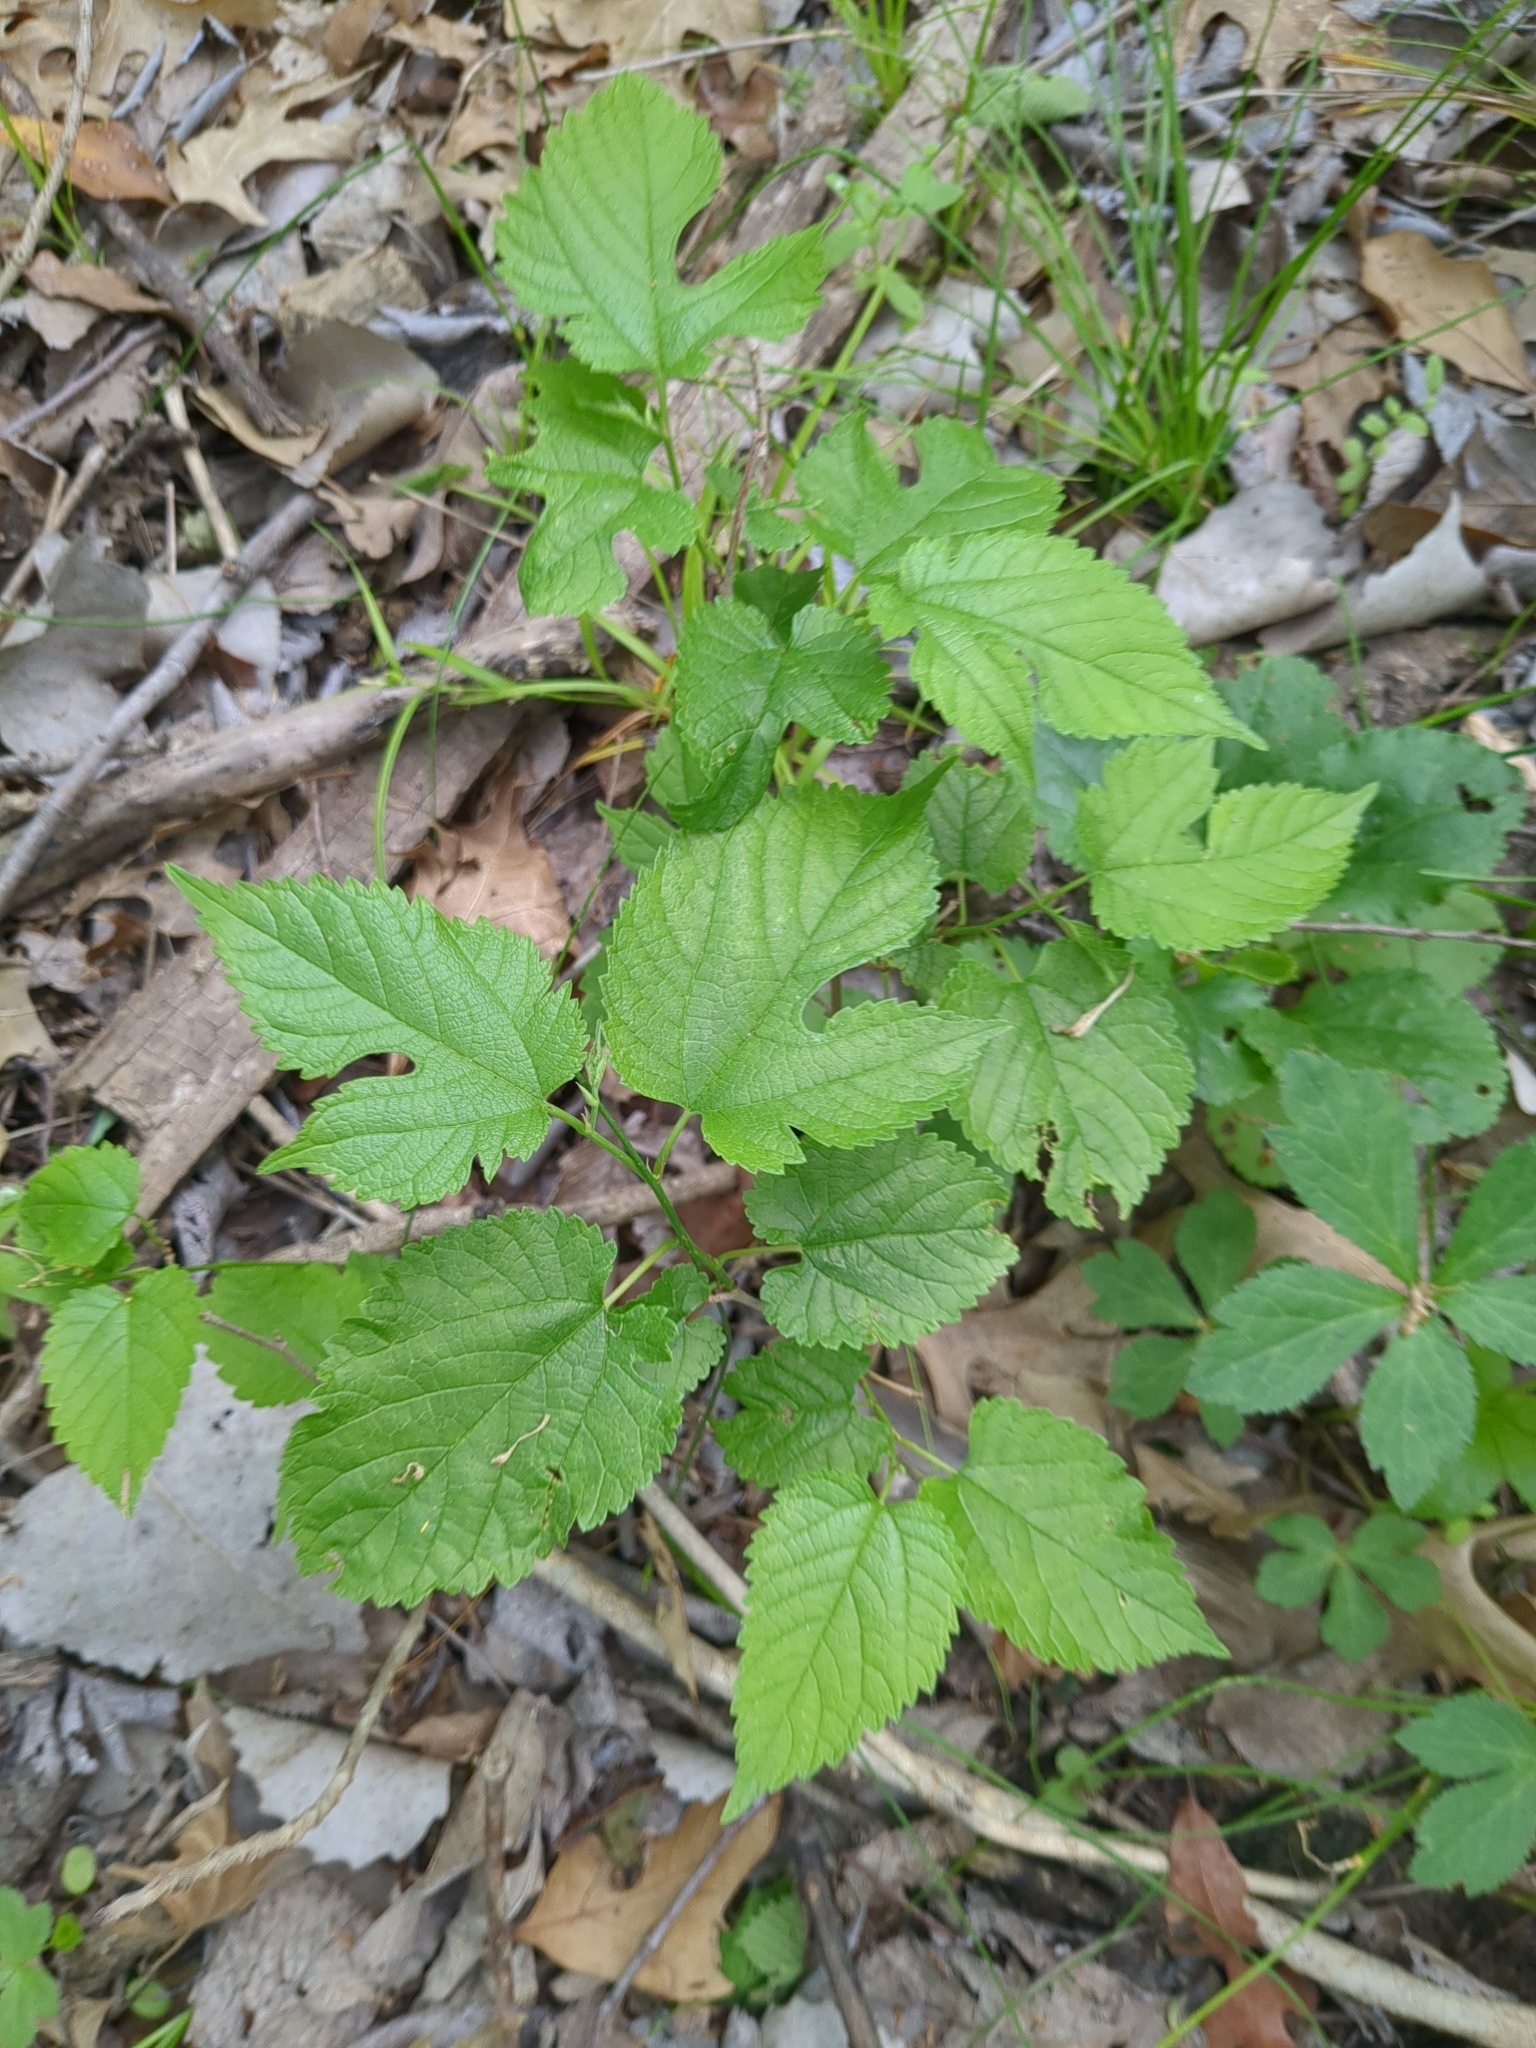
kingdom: Plantae
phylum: Tracheophyta
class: Magnoliopsida
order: Rosales
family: Moraceae
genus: Morus
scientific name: Morus rubra
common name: Red mulberry
